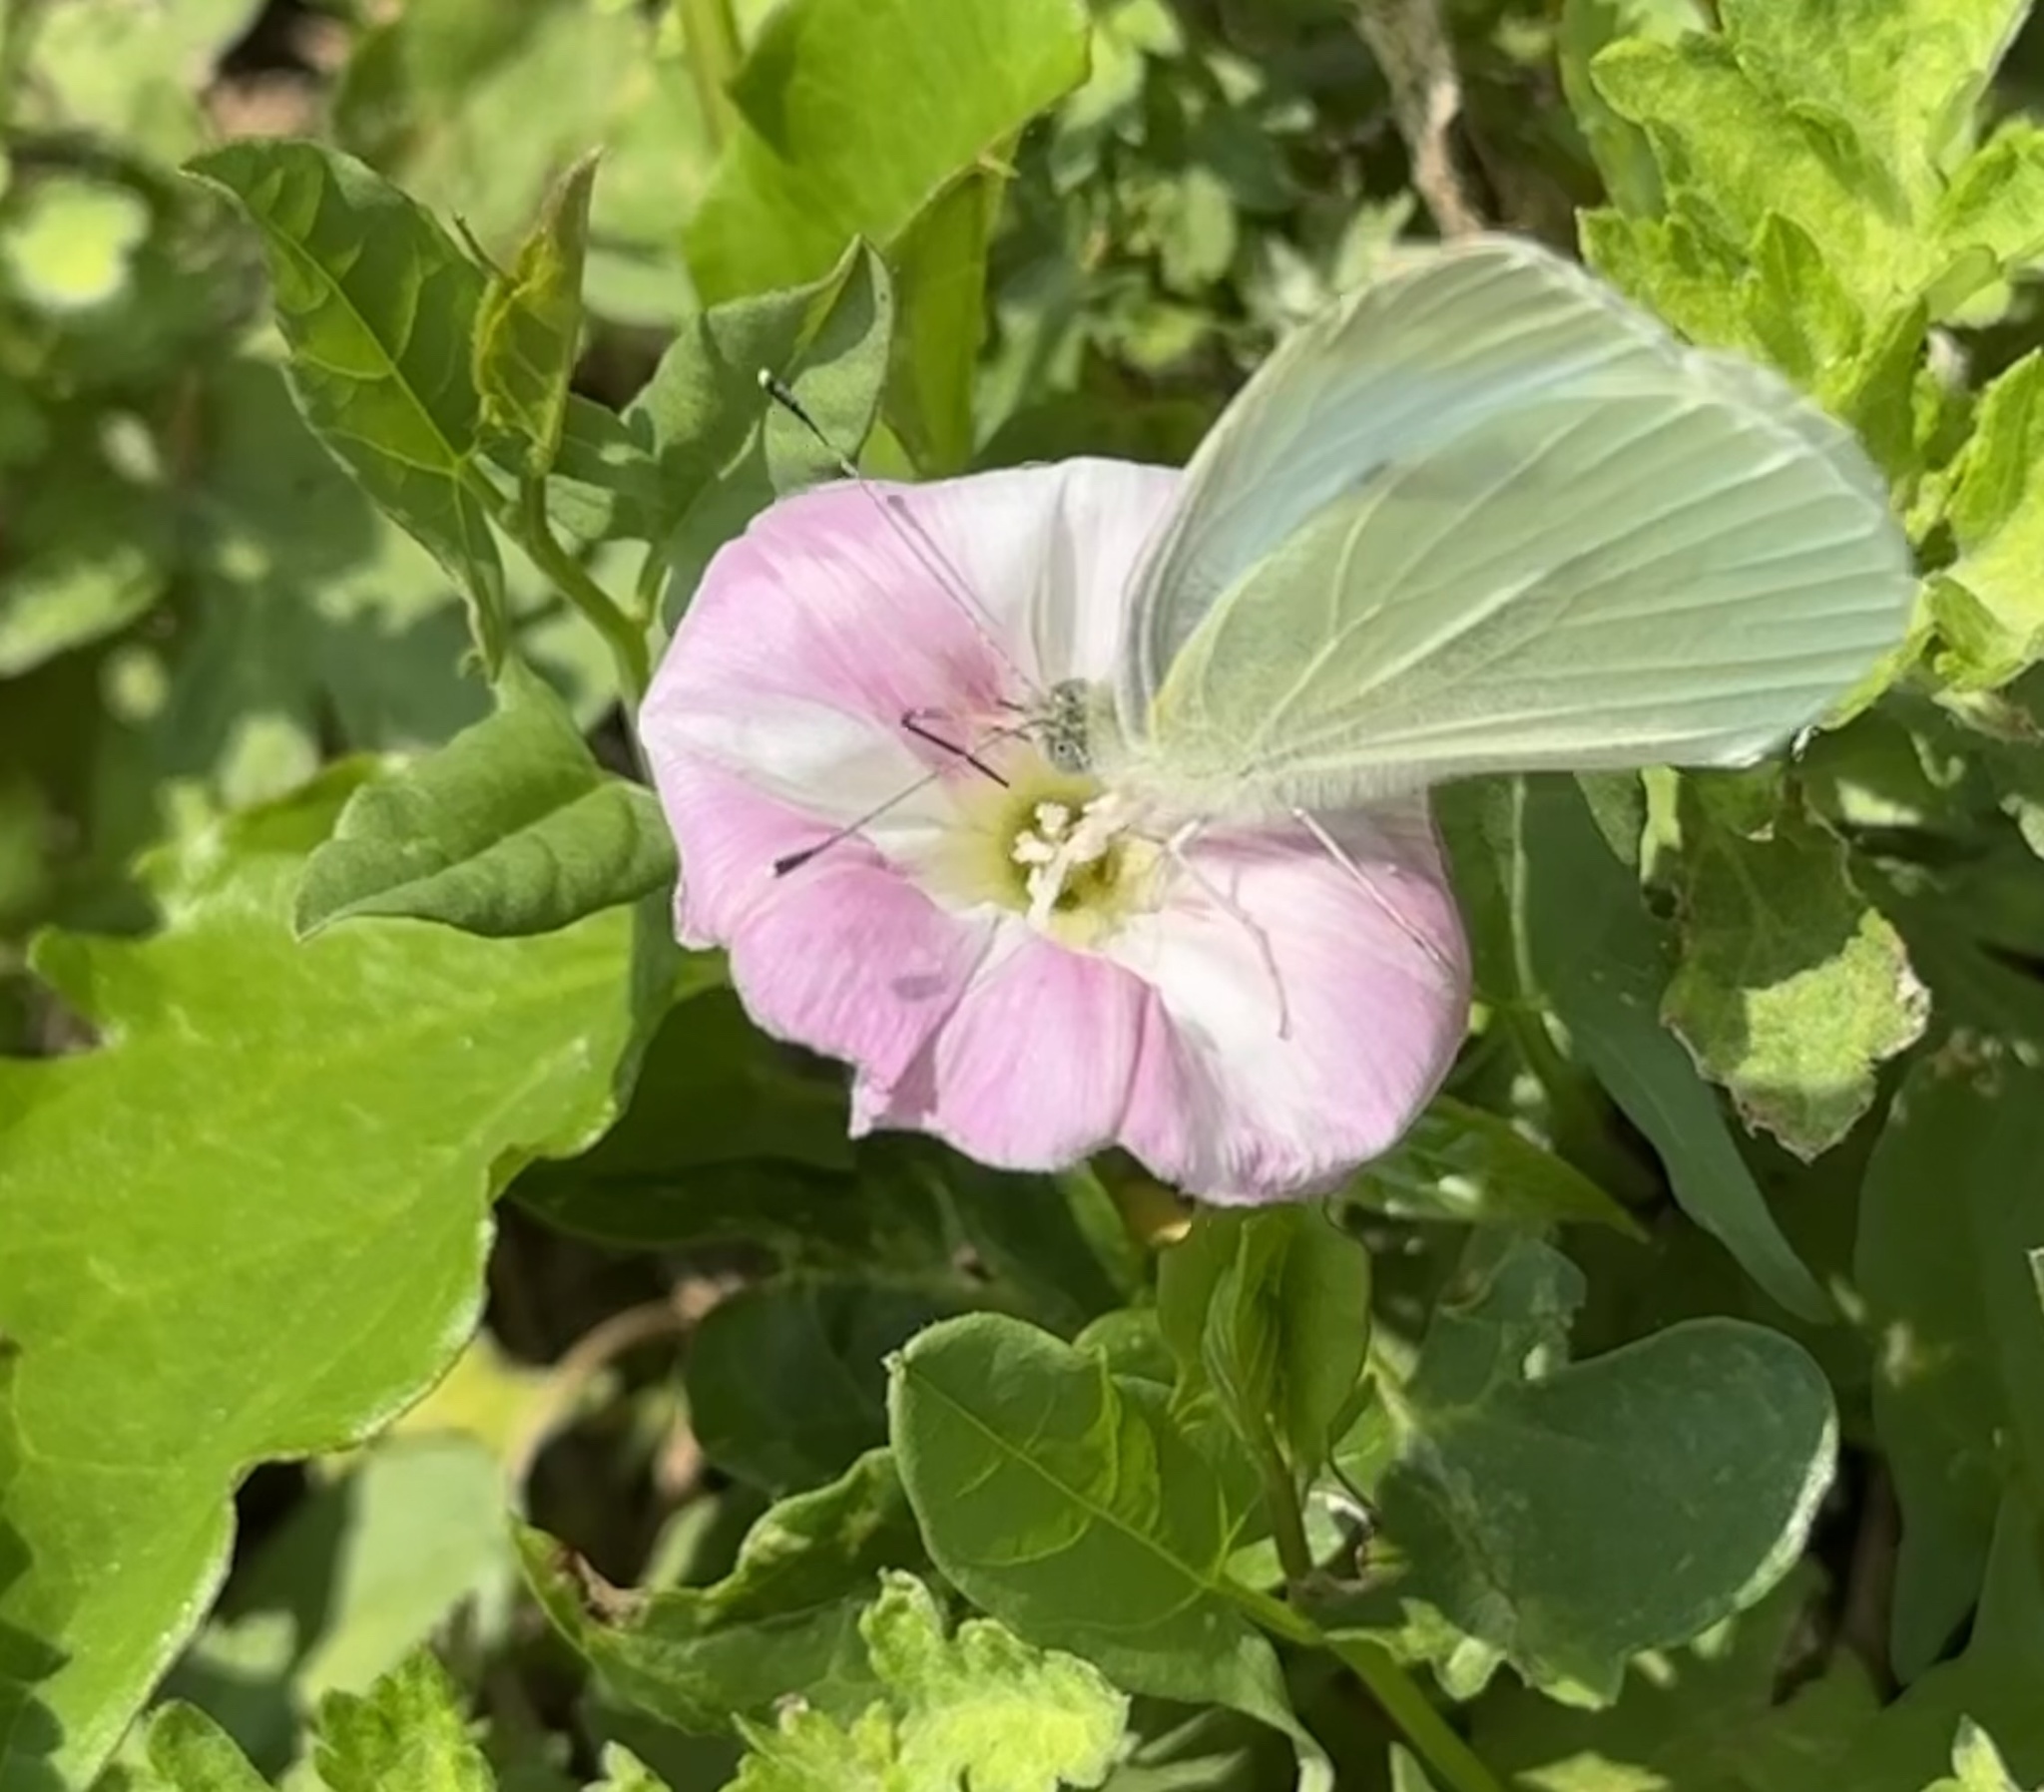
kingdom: Animalia
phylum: Arthropoda
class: Insecta
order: Lepidoptera
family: Pieridae
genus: Pieris
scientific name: Pieris rapae
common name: Small white
